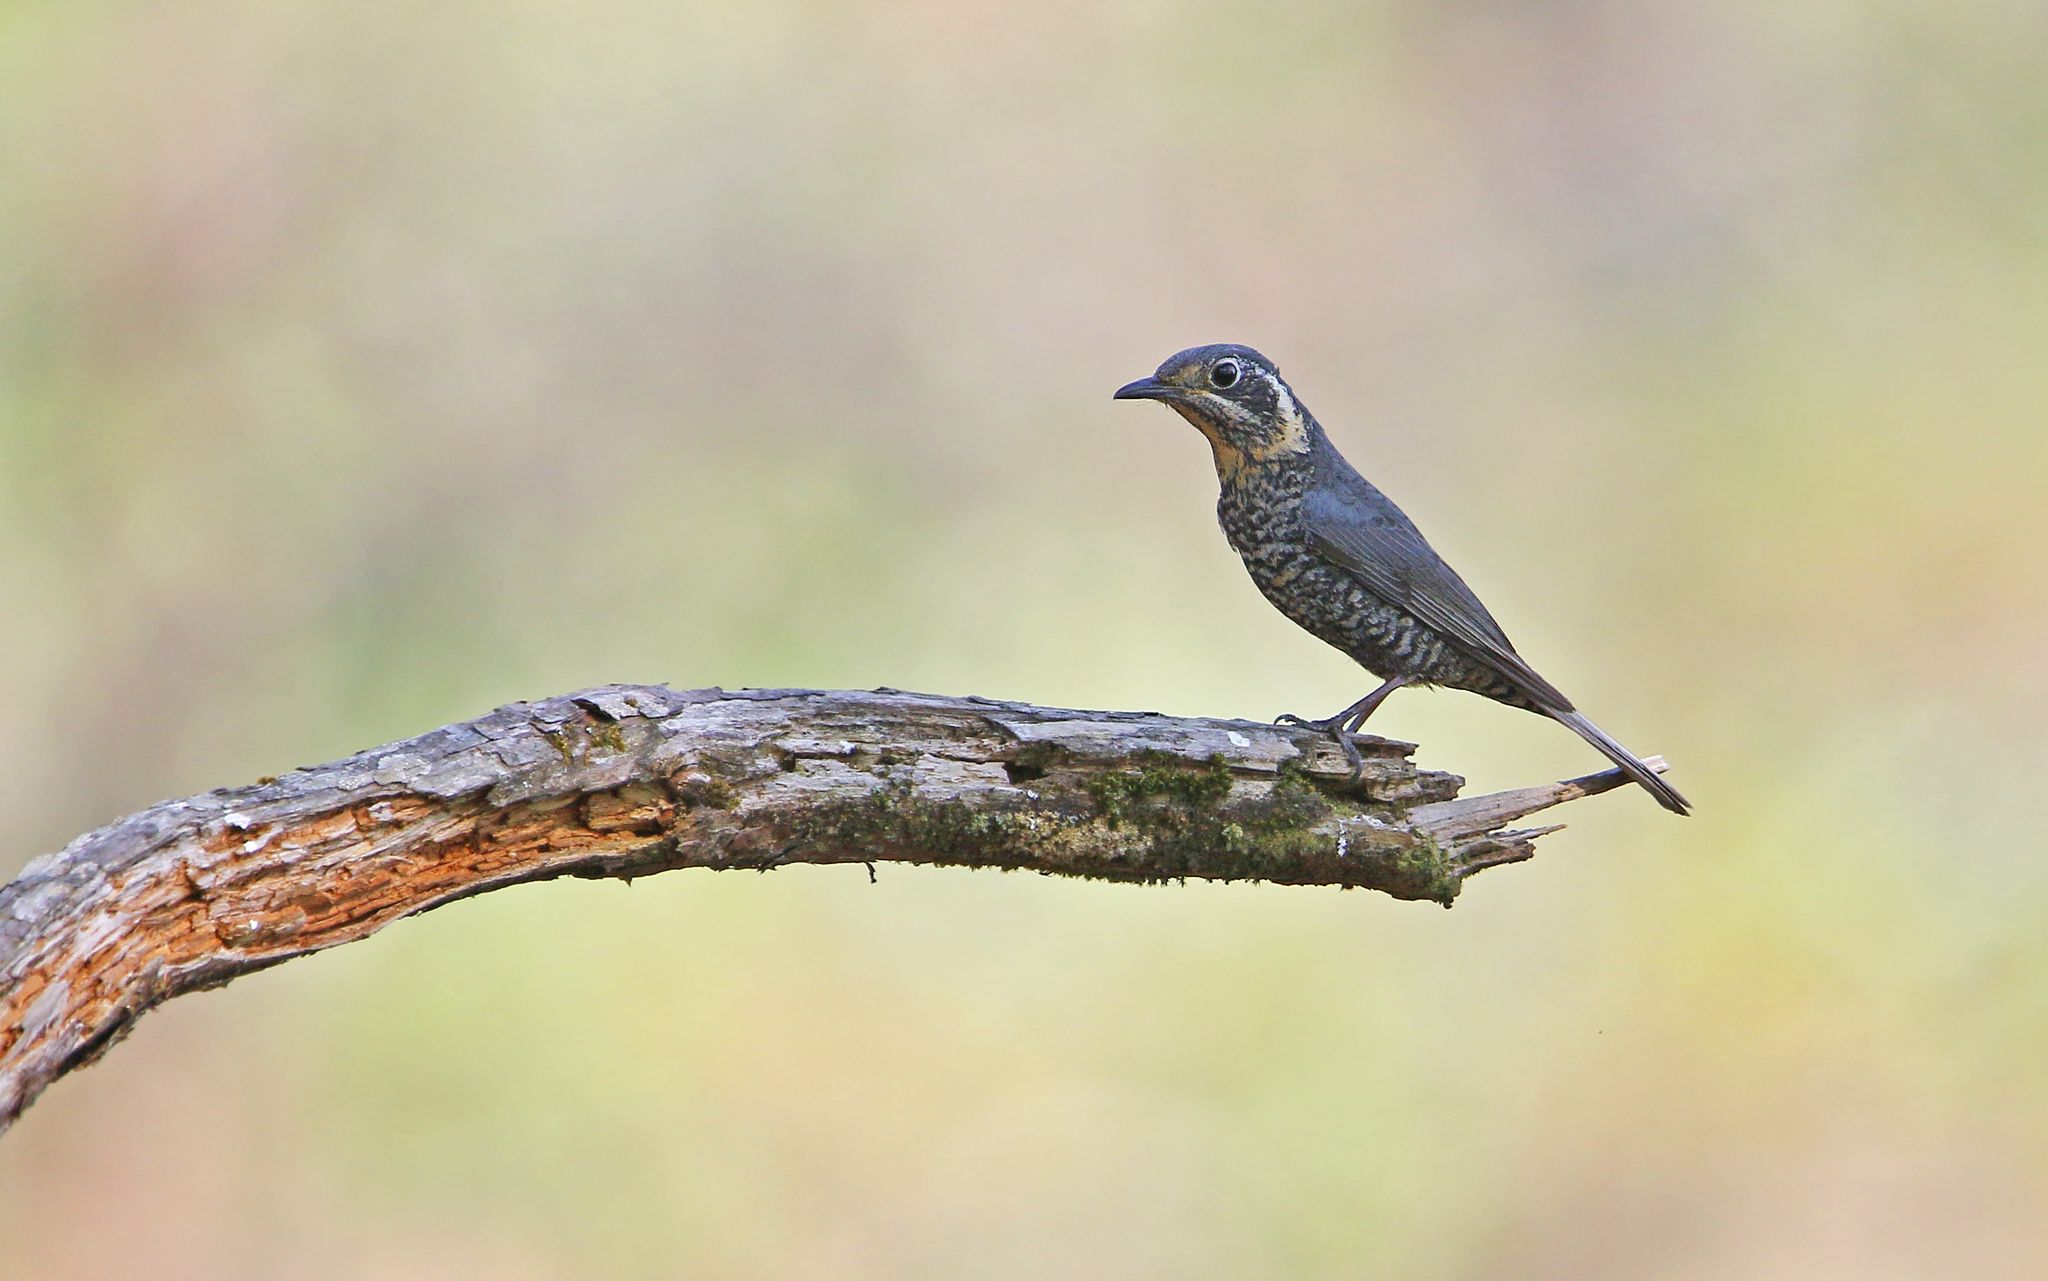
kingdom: Animalia
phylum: Chordata
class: Aves
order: Passeriformes
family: Muscicapidae
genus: Monticola
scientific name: Monticola rufiventris
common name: Chestnut-bellied rock thrush
